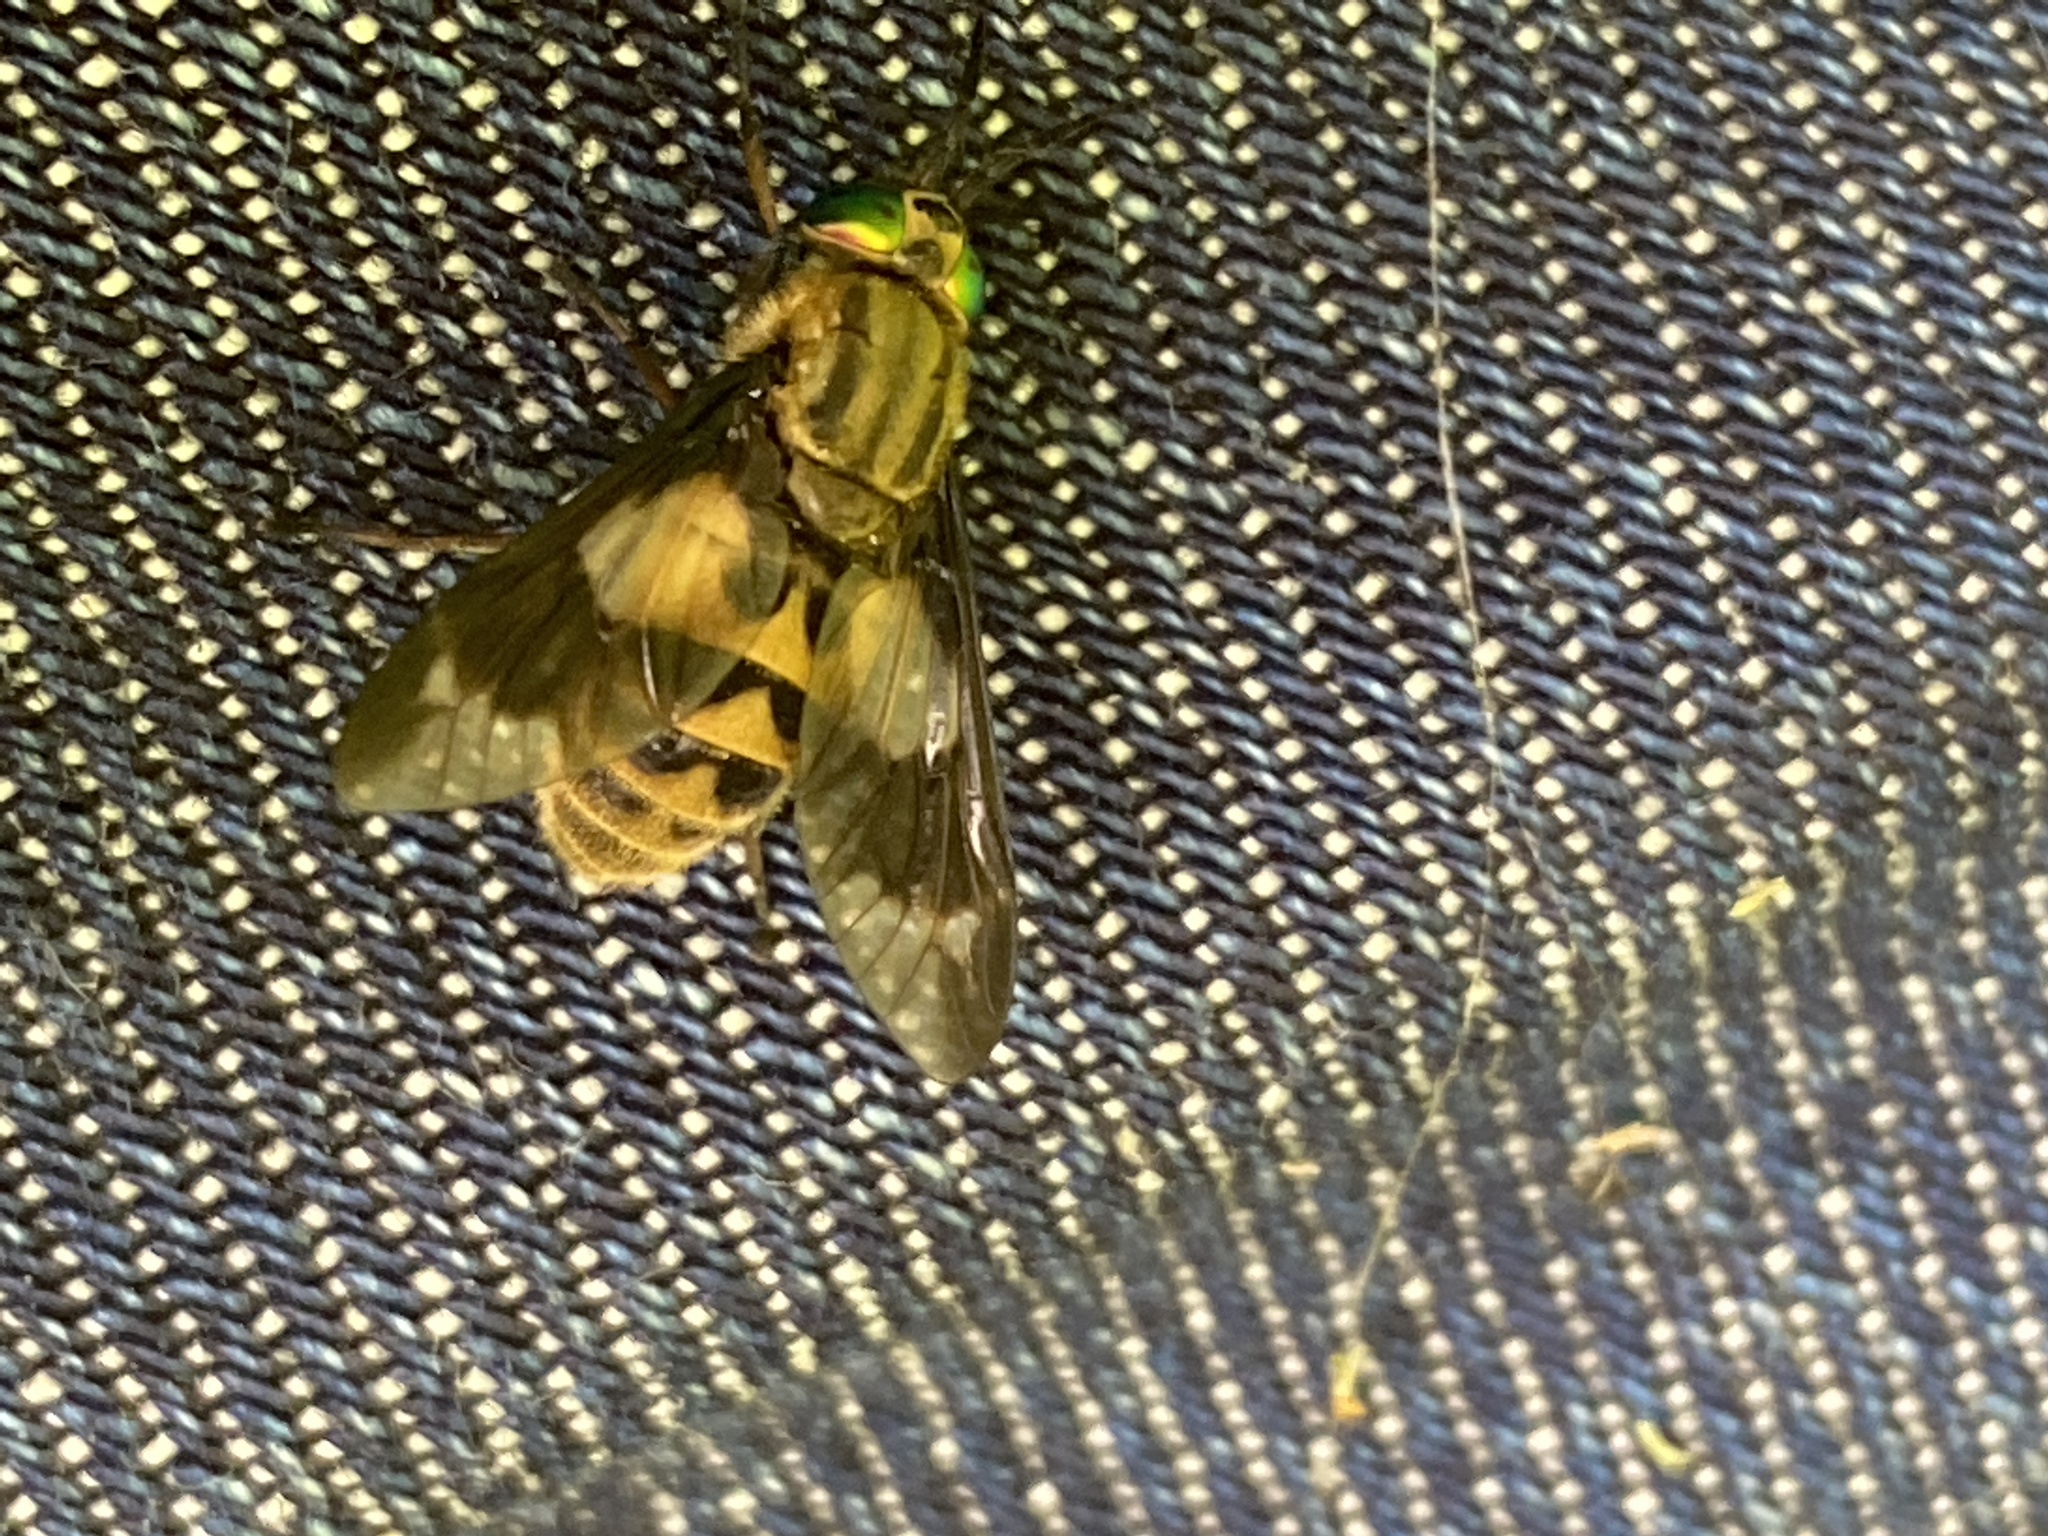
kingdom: Animalia
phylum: Arthropoda
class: Insecta
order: Diptera
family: Tabanidae
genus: Chrysops
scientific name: Chrysops relictus
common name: Twin-lobed deerfly
